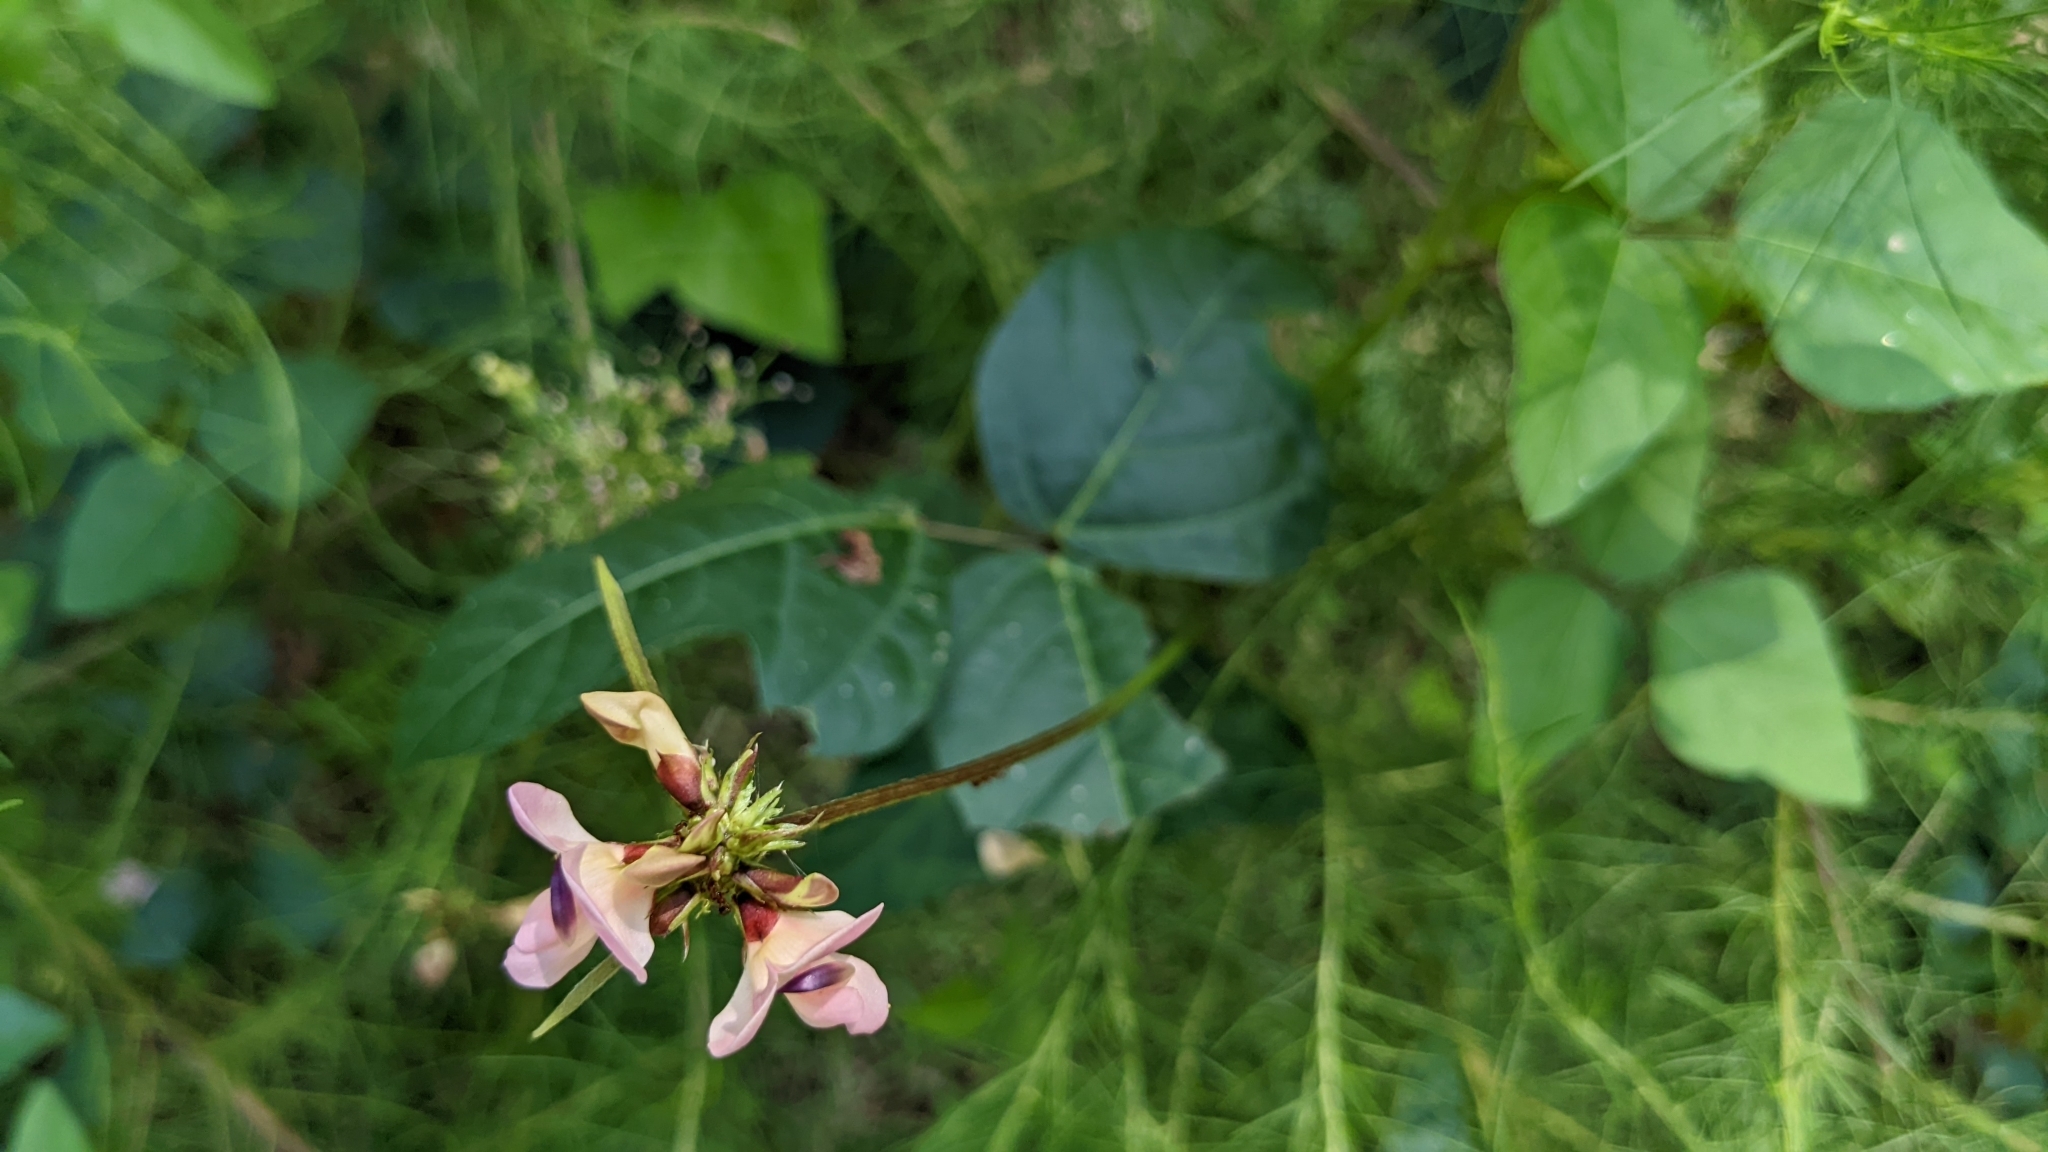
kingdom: Plantae
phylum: Tracheophyta
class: Magnoliopsida
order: Fabales
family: Fabaceae
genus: Strophostyles
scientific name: Strophostyles helvola
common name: Trailing wild bean
